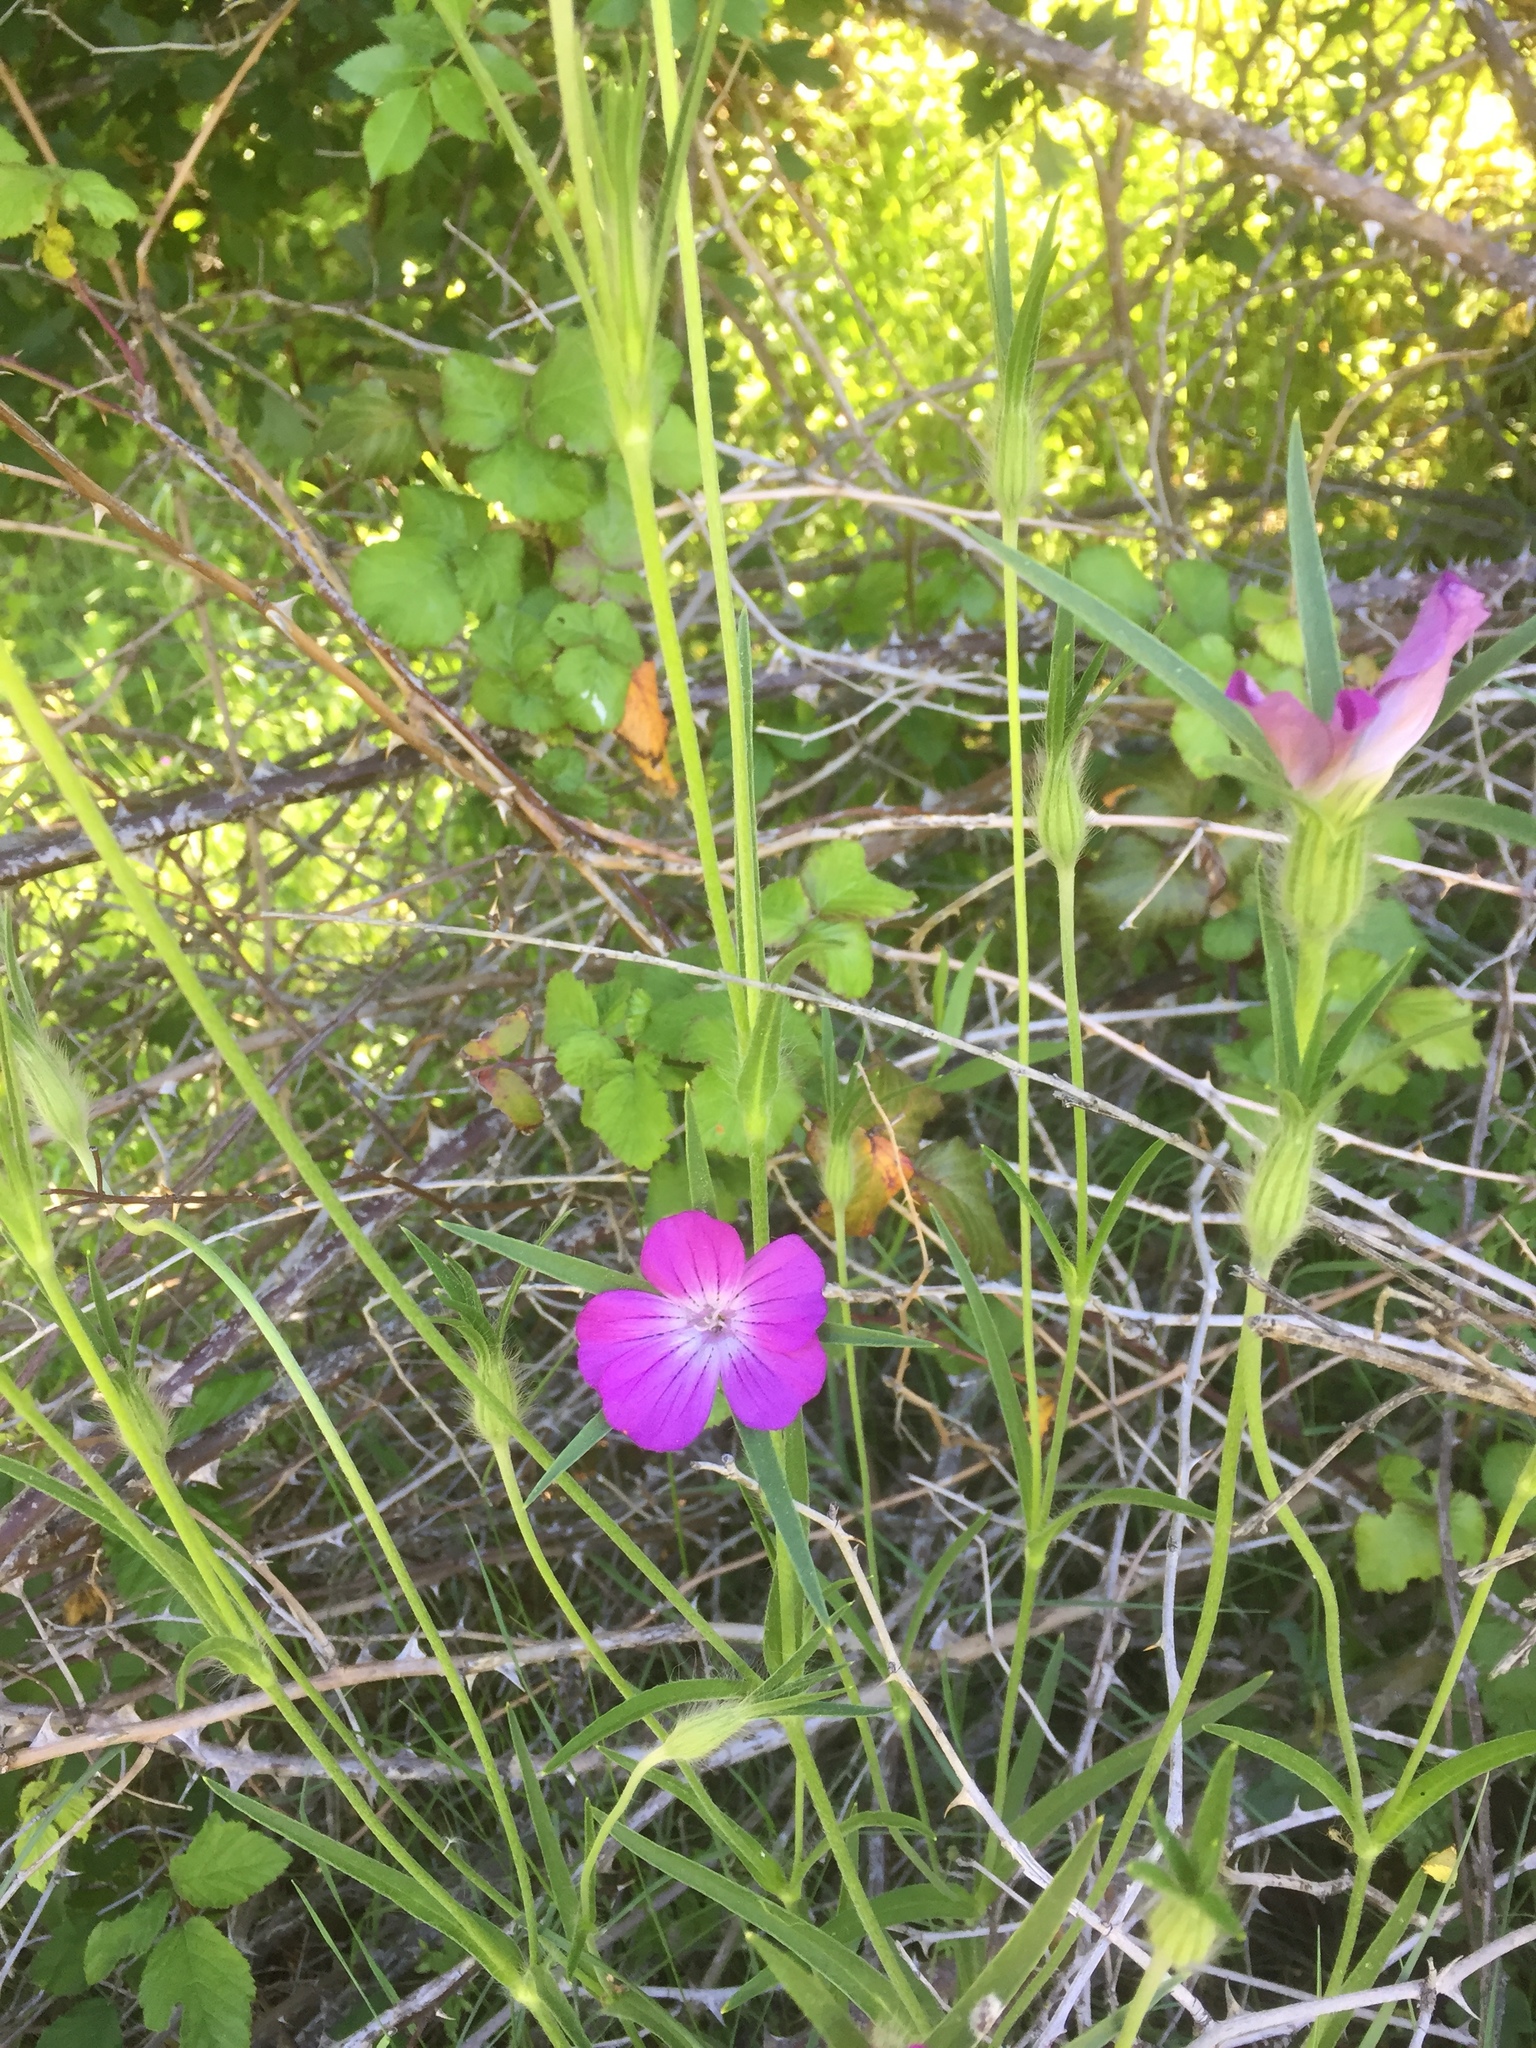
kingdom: Plantae
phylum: Tracheophyta
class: Magnoliopsida
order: Caryophyllales
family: Caryophyllaceae
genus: Agrostemma
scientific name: Agrostemma githago
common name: Common corncockle
